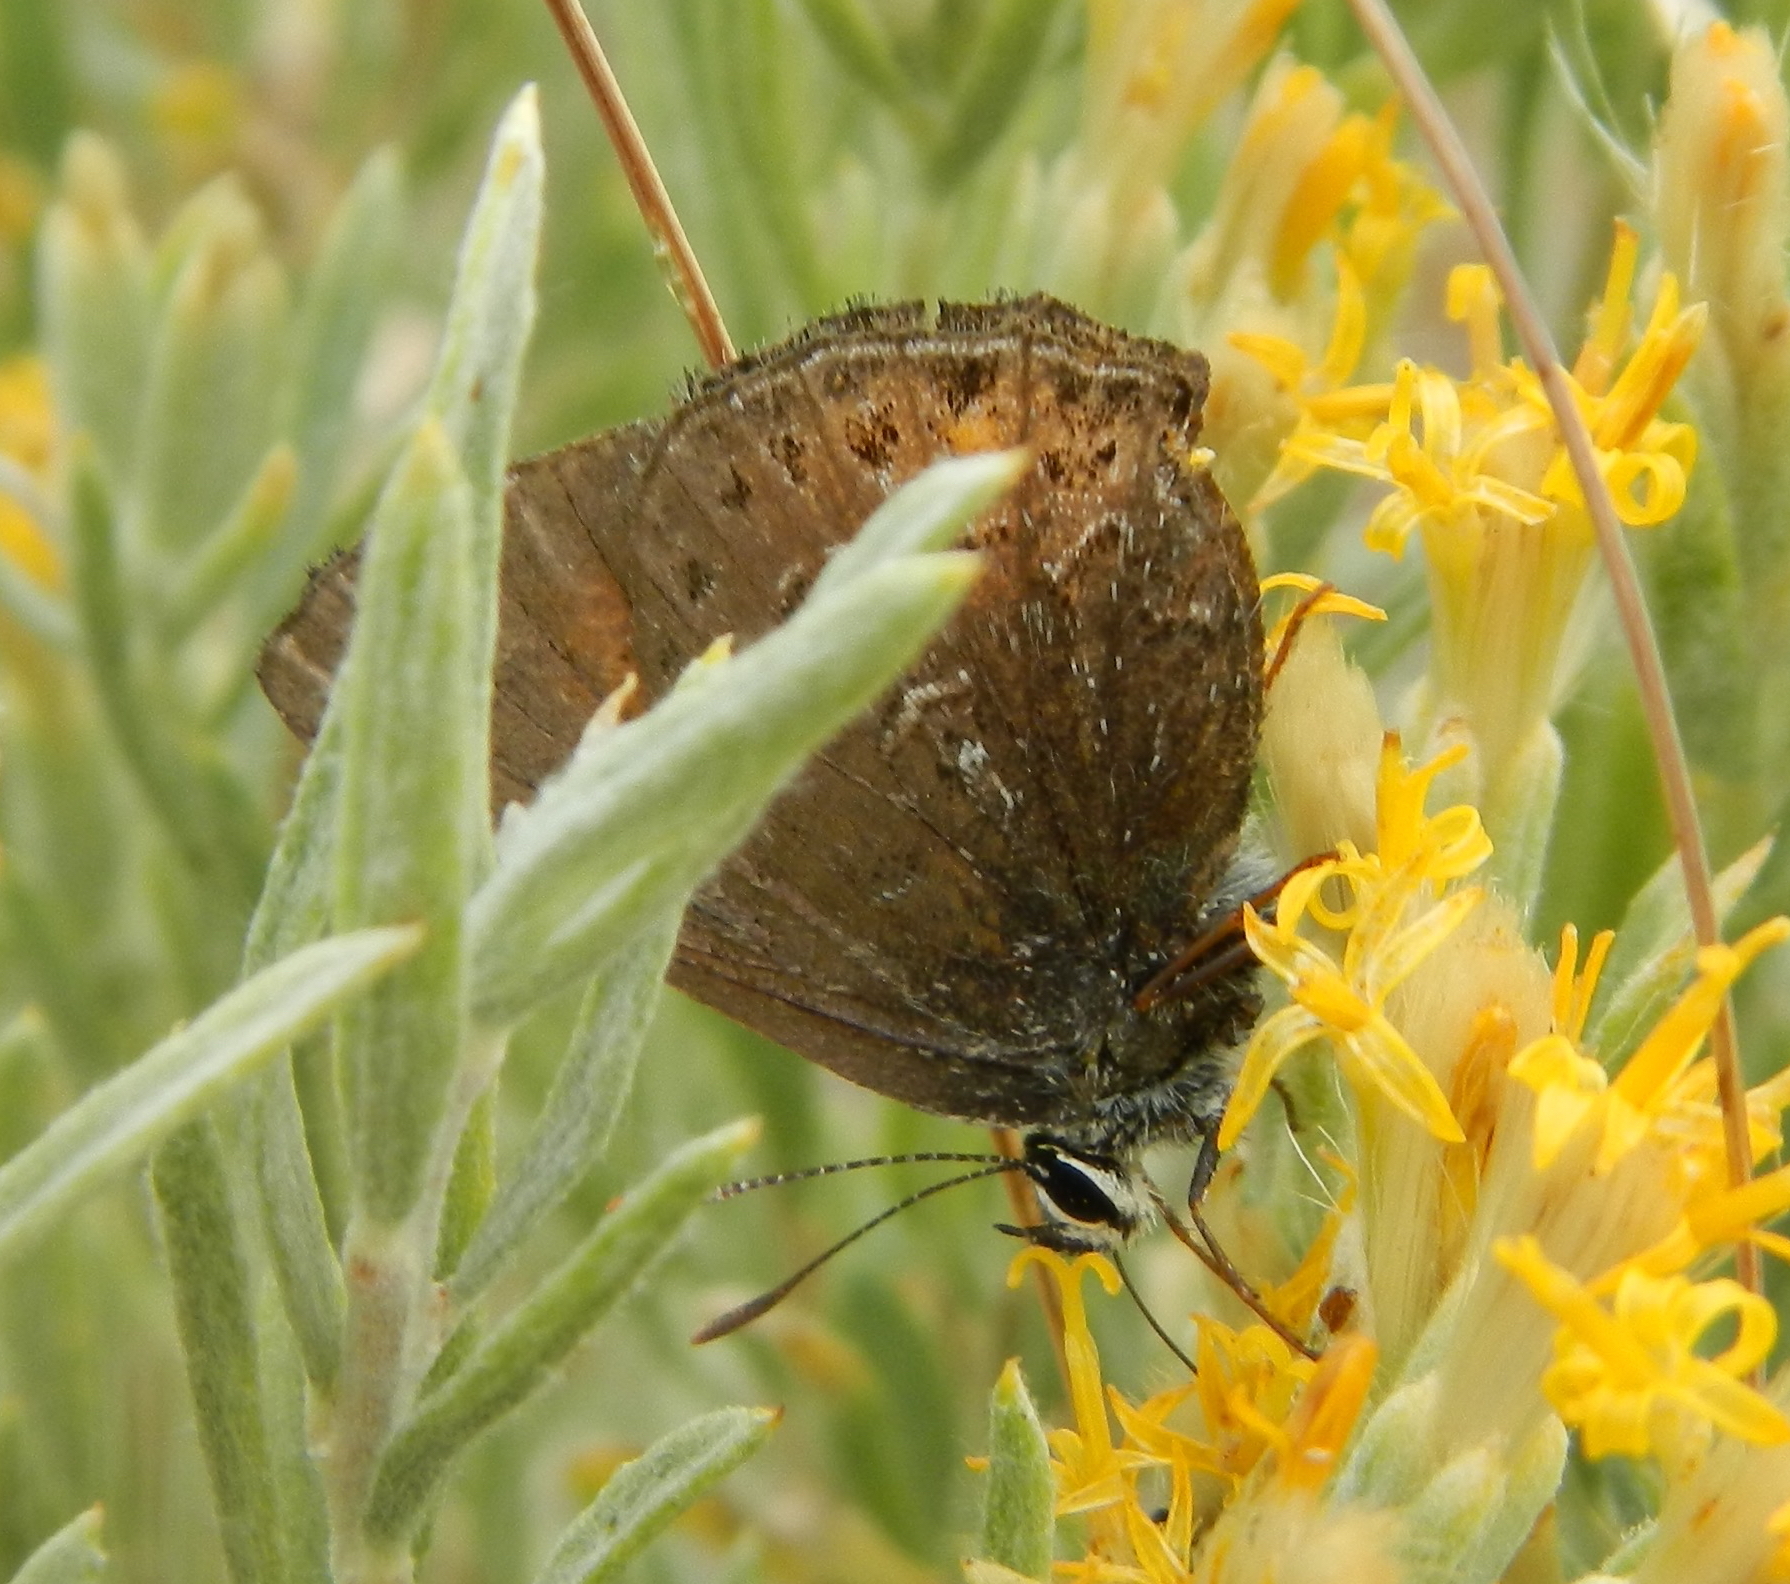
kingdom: Animalia
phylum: Arthropoda
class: Insecta
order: Lepidoptera
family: Lycaenidae
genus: Satyrium
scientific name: Satyrium behrii
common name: Behr's hairstreak
